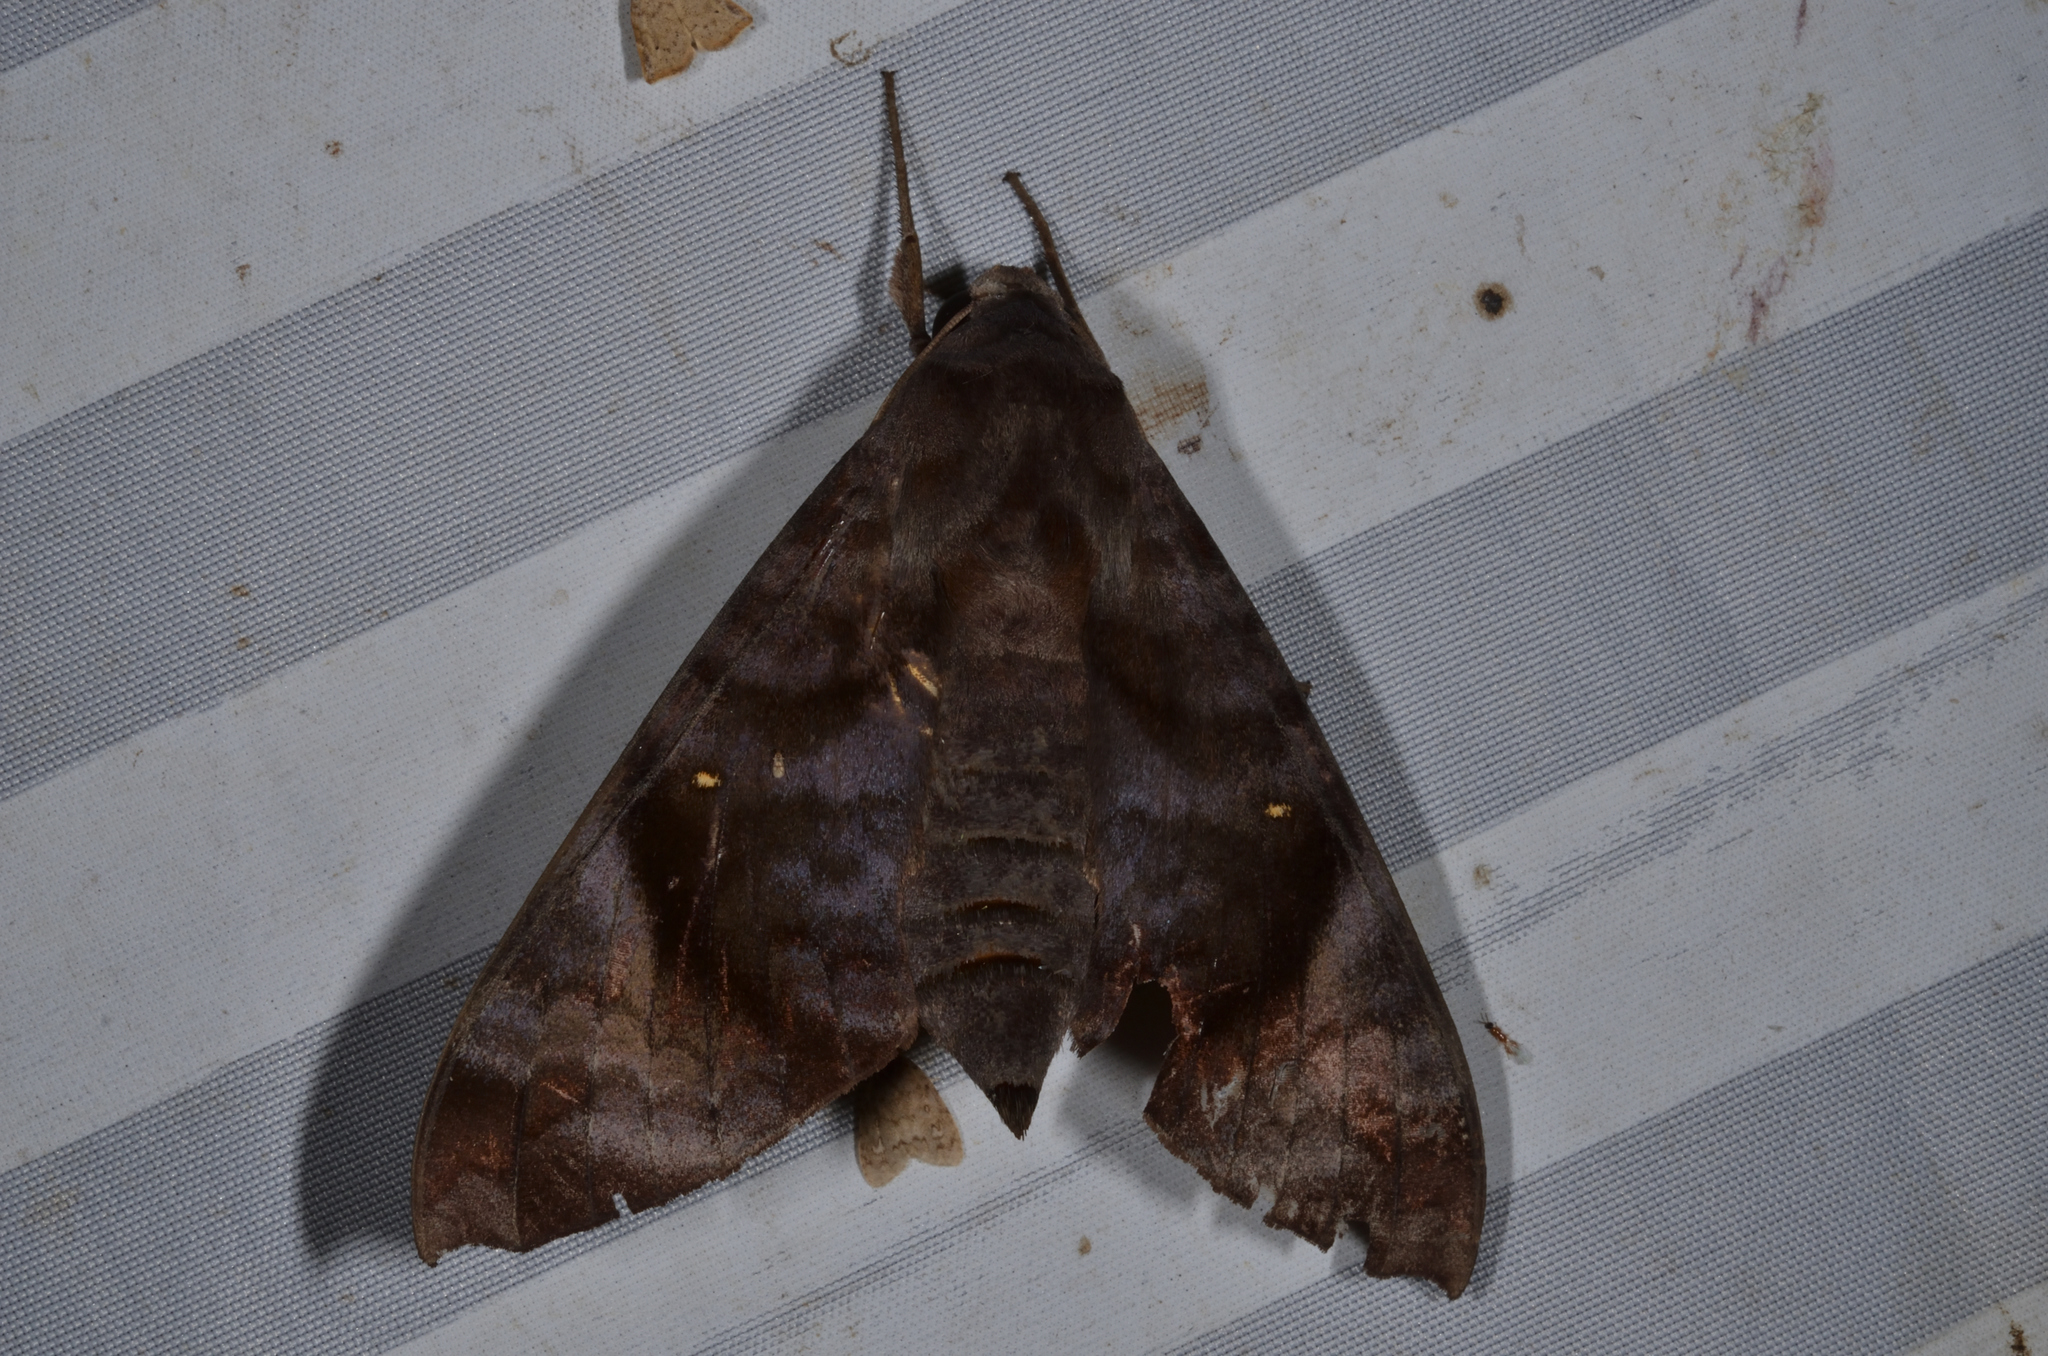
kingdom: Animalia
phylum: Arthropoda
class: Insecta
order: Lepidoptera
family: Sphingidae
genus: Acosmeryx
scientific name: Acosmeryx pseudonaga
